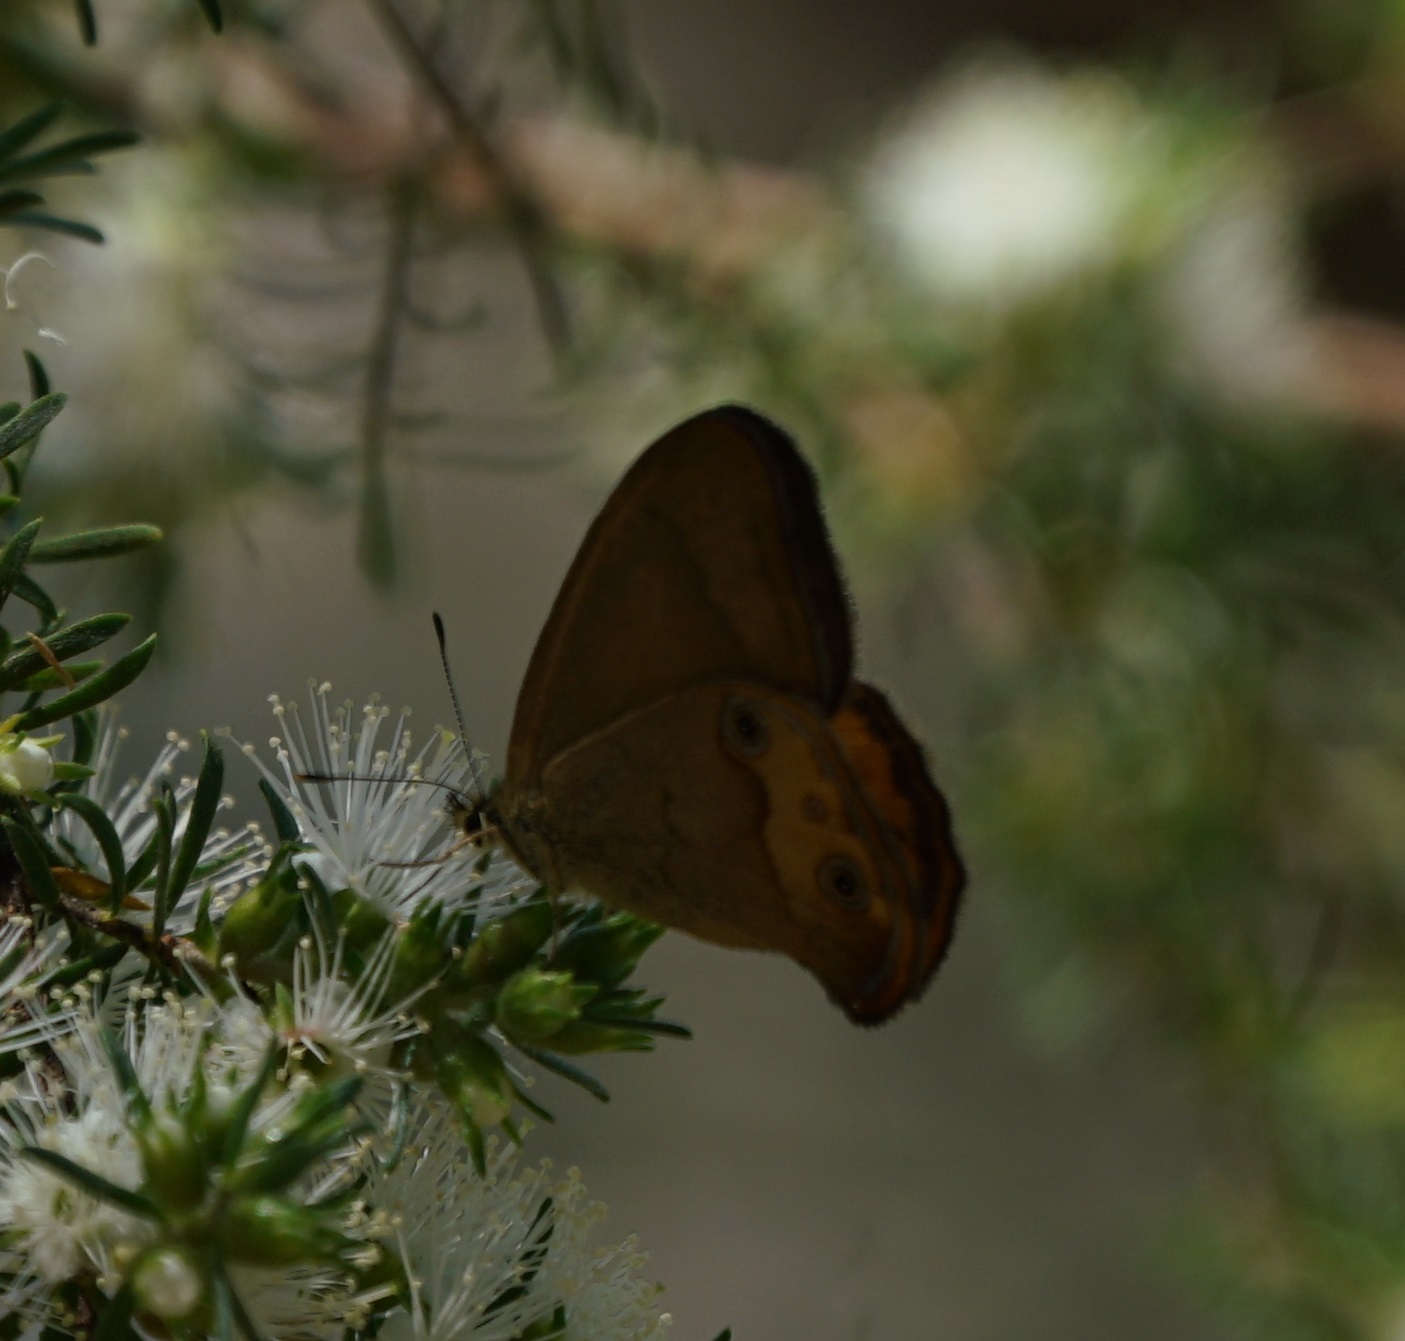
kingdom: Animalia
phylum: Arthropoda
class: Insecta
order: Lepidoptera
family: Nymphalidae
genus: Hypocysta
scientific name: Hypocysta metirius
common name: Brown ringlet
